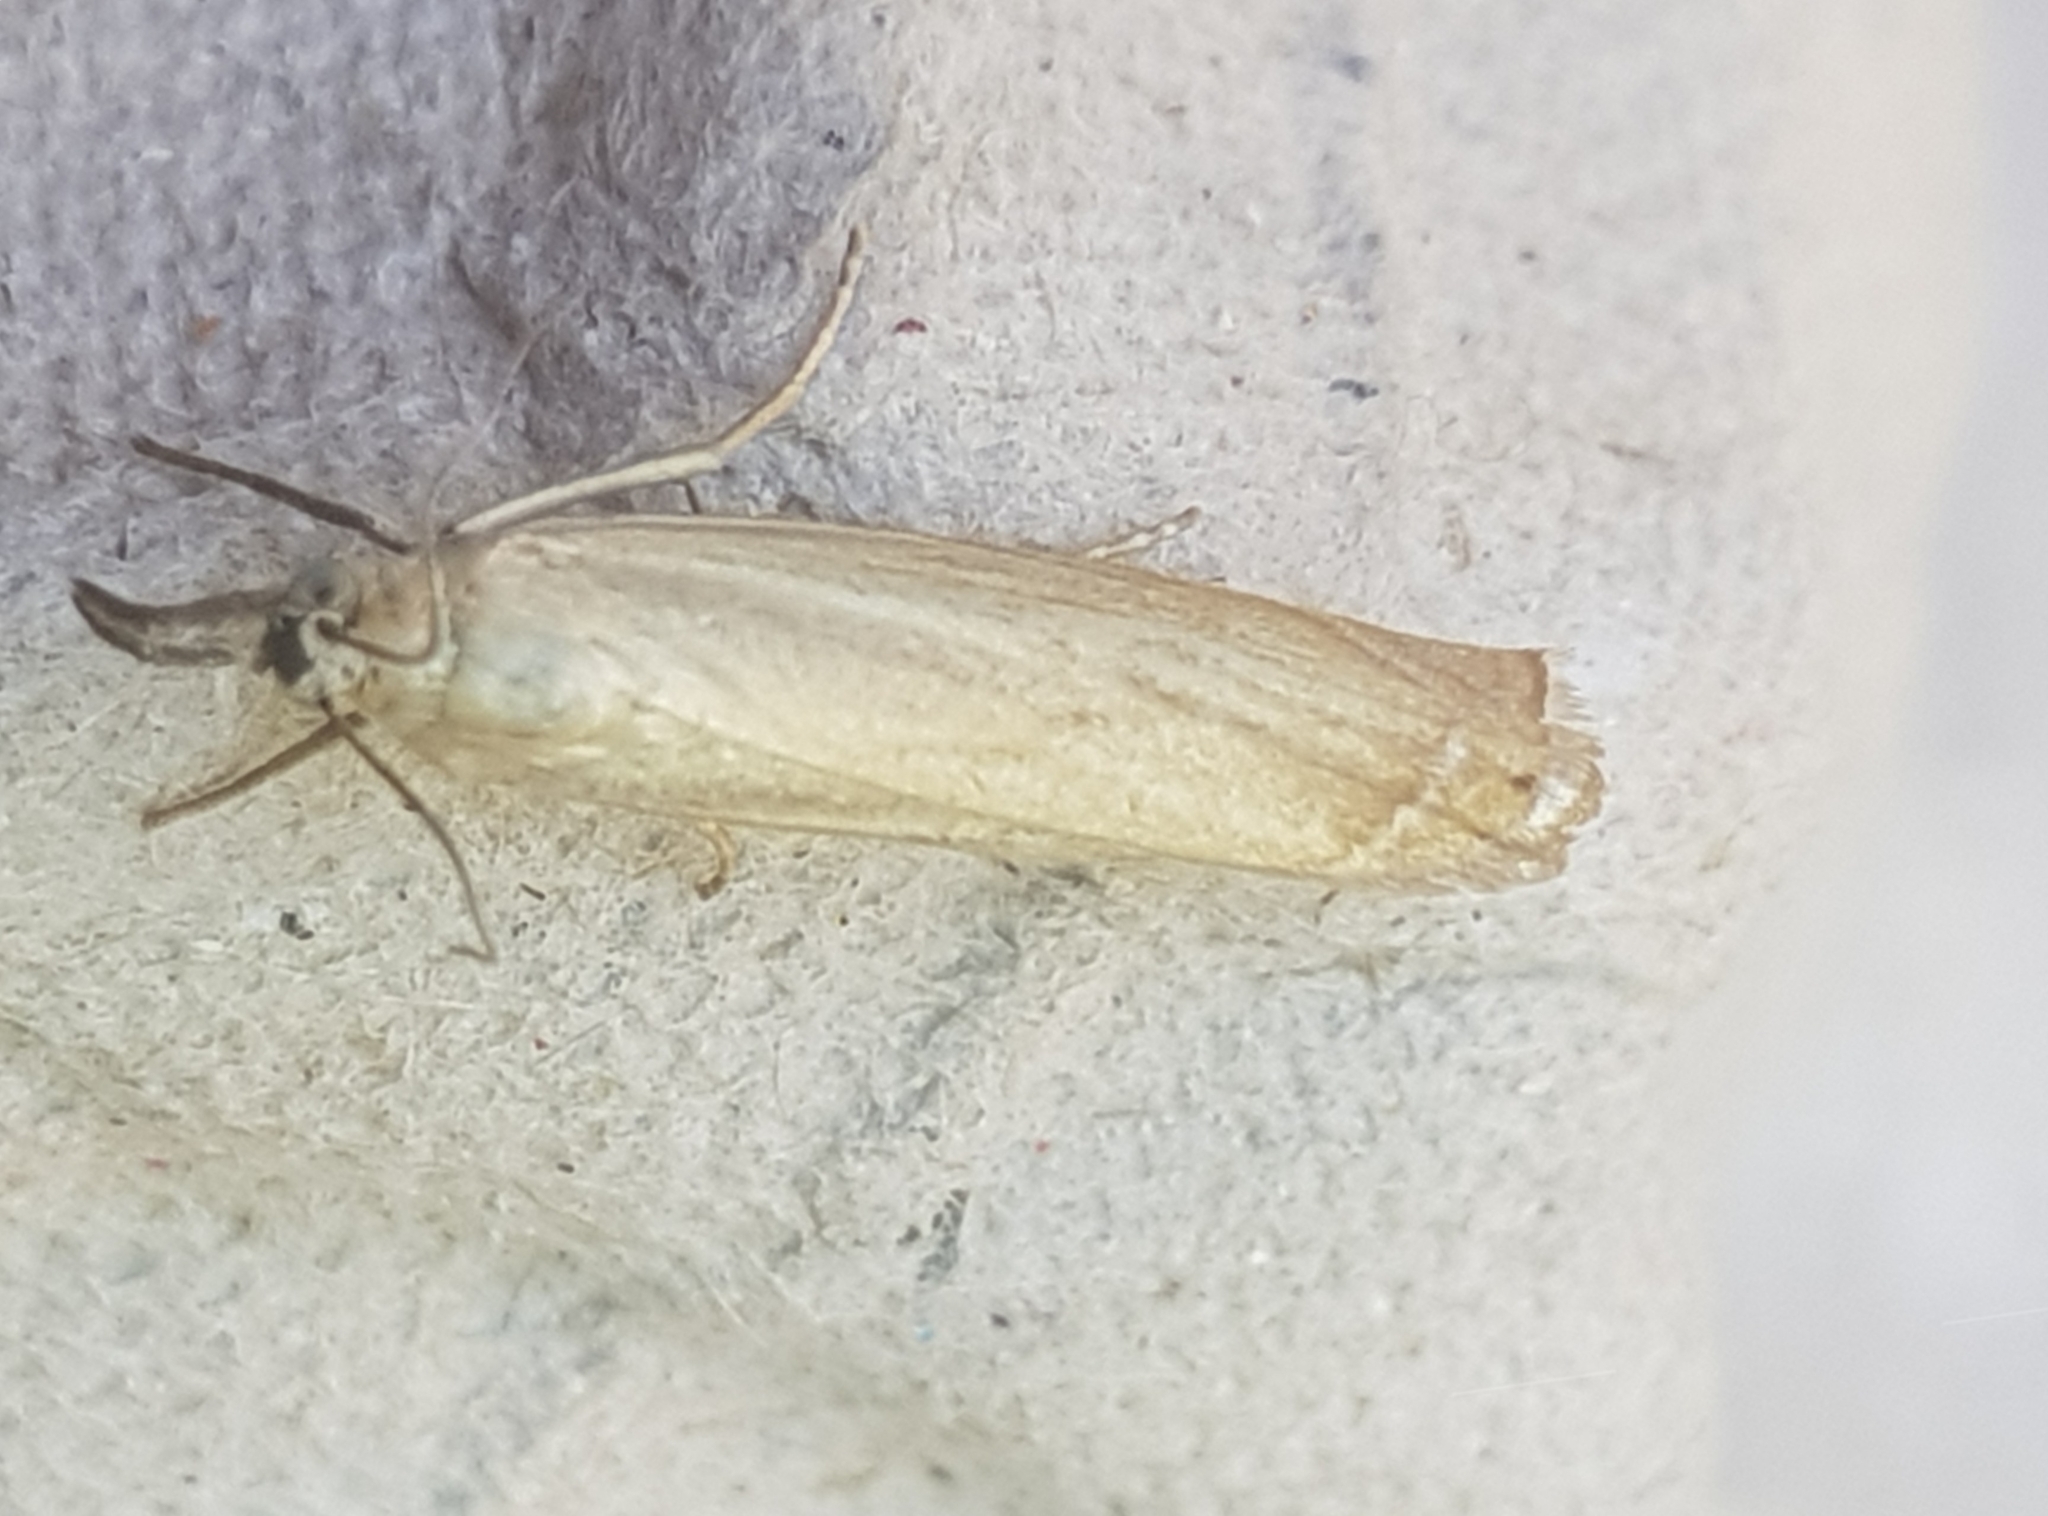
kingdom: Animalia
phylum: Arthropoda
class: Insecta
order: Lepidoptera
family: Crambidae
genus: Agriphila
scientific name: Agriphila straminella
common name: Straw grass-veneer
